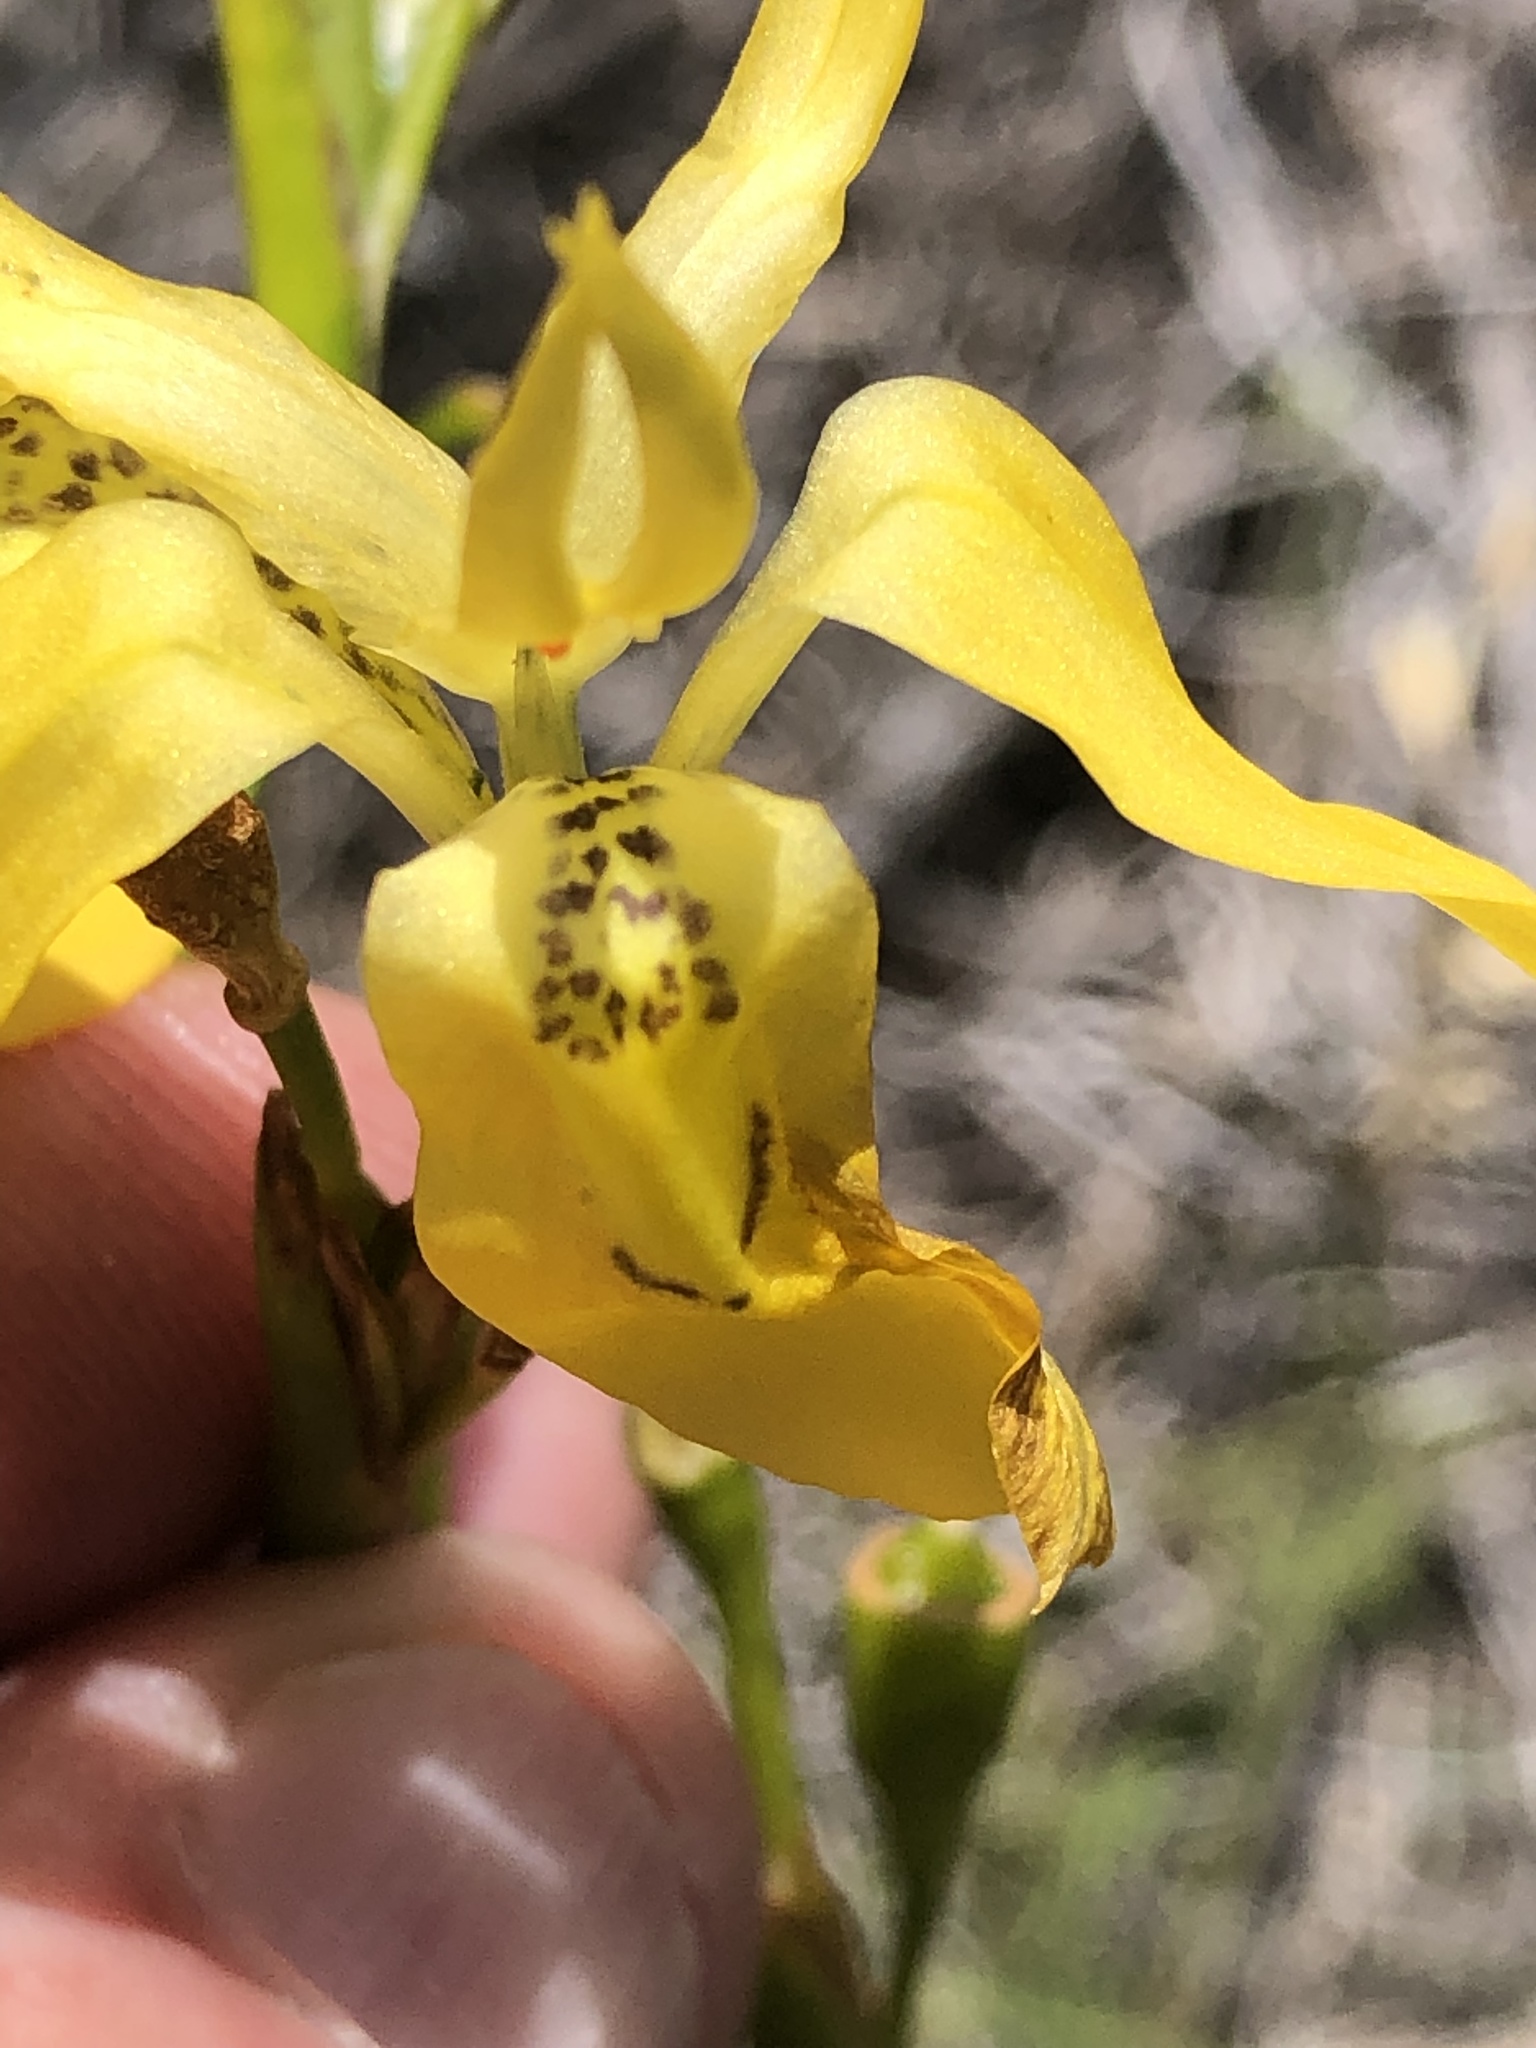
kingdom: Plantae
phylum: Tracheophyta
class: Liliopsida
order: Asparagales
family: Iridaceae
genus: Moraea
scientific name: Moraea ramosissima
